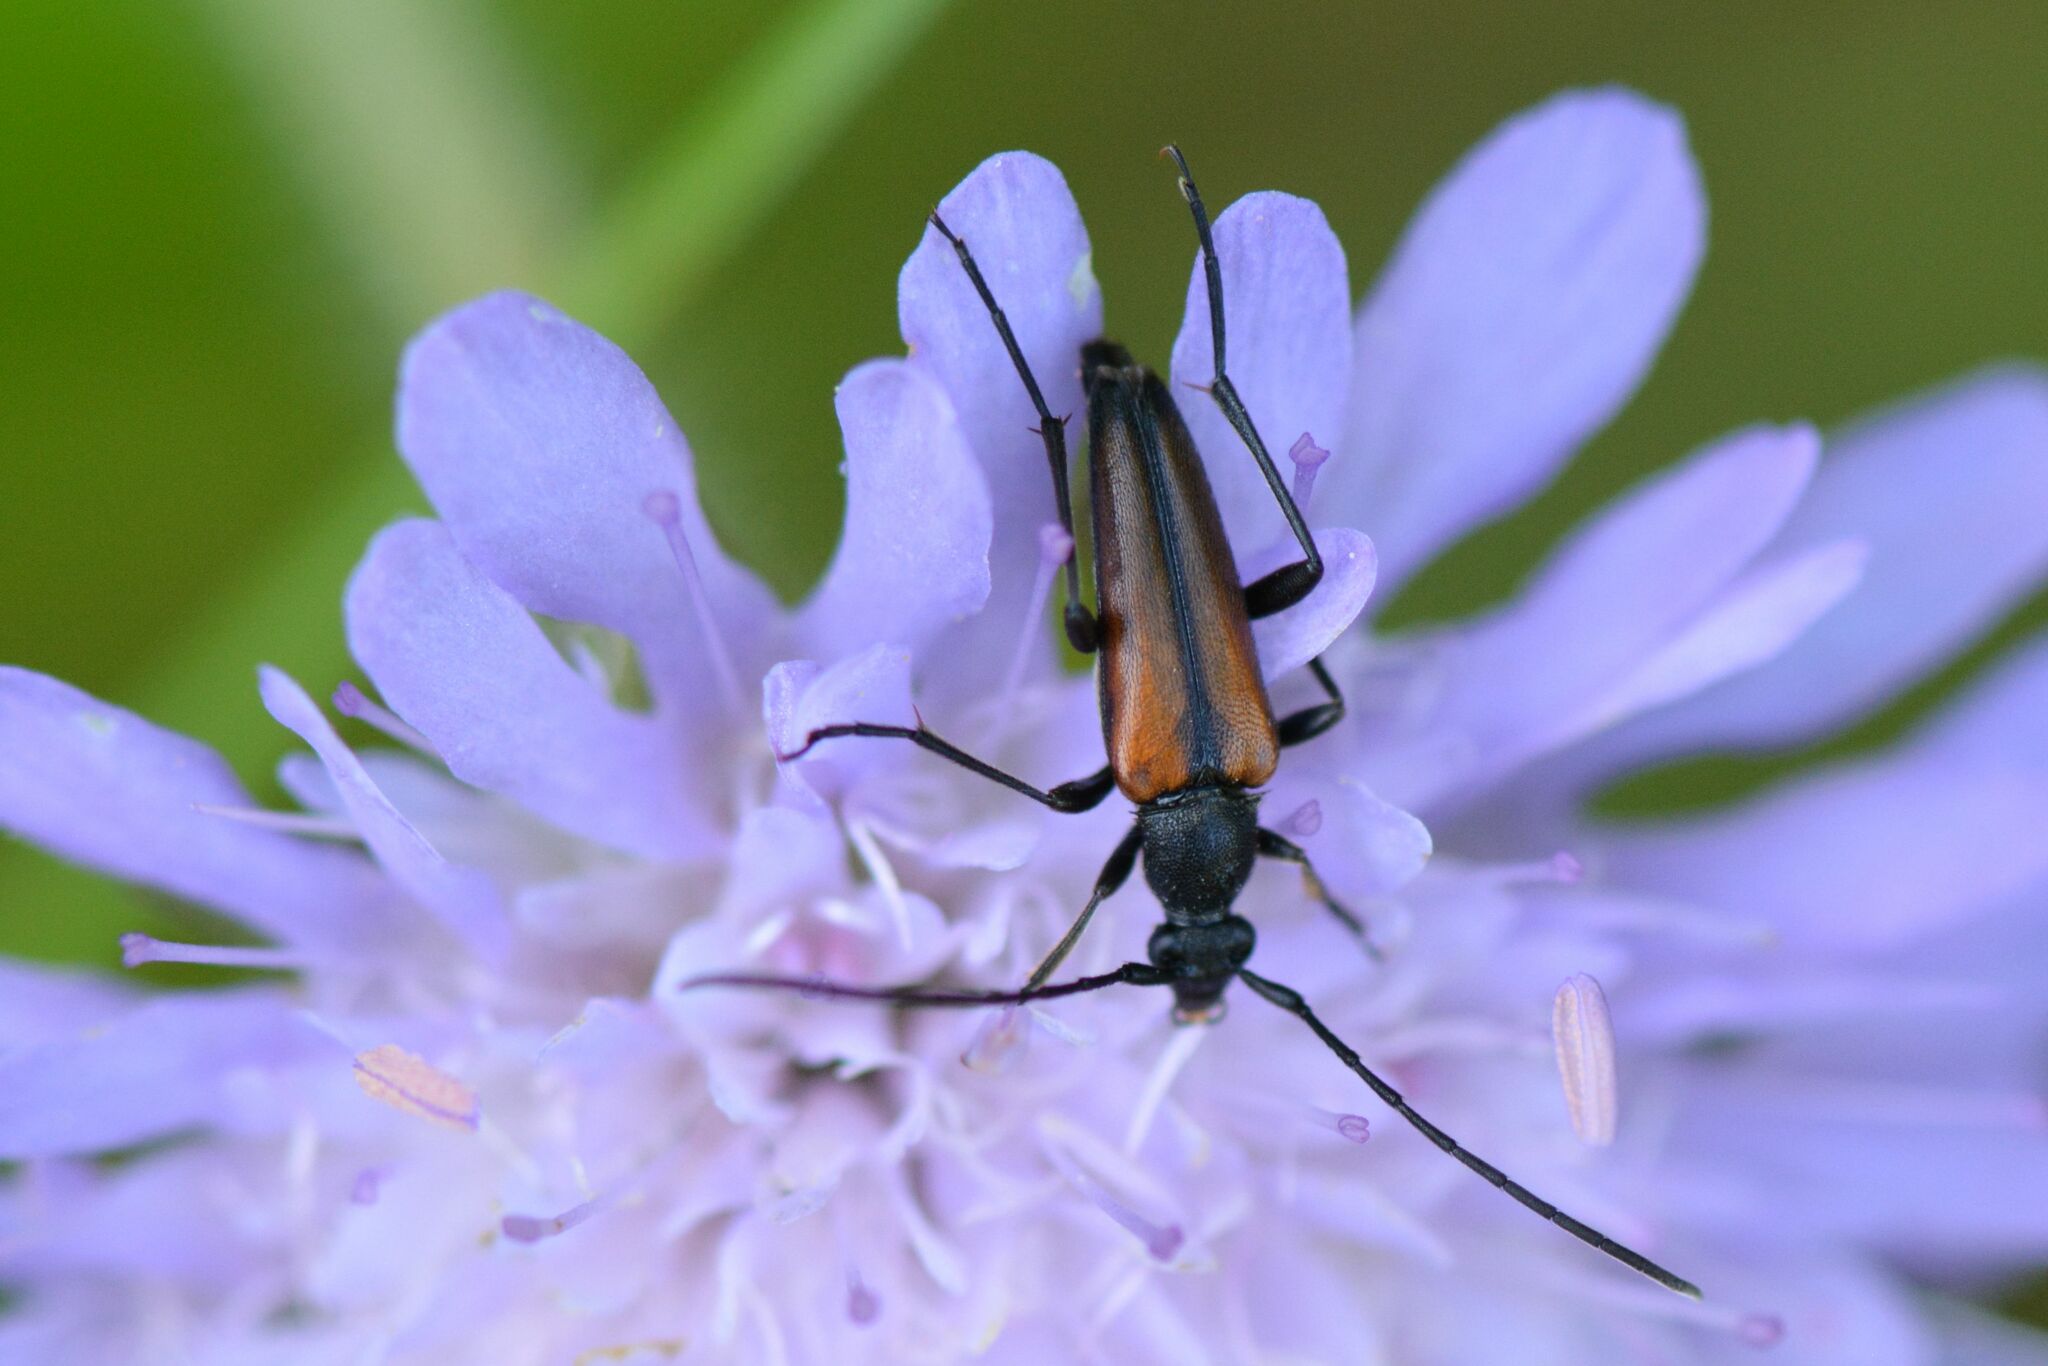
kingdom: Animalia
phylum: Arthropoda
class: Insecta
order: Coleoptera
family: Cerambycidae
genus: Stenurella
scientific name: Stenurella melanura
